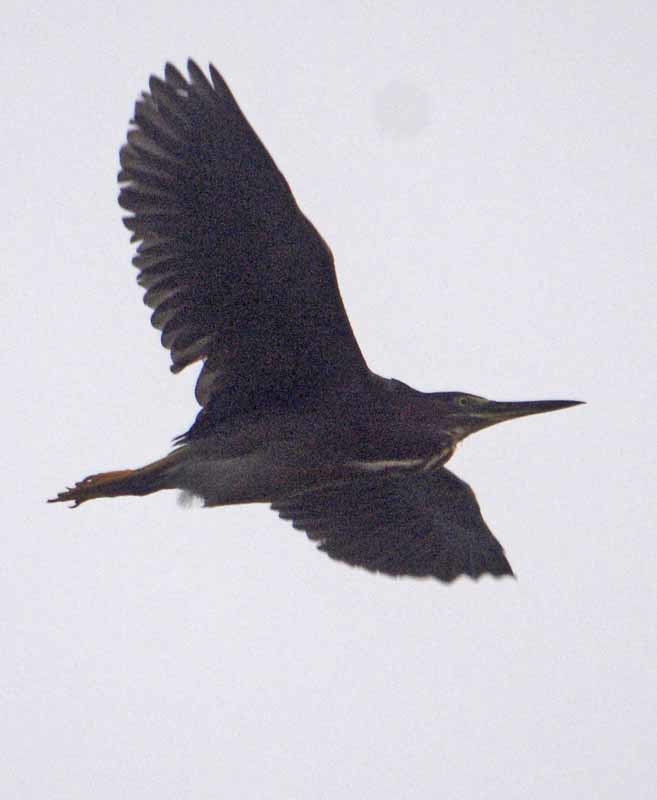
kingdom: Animalia
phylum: Chordata
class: Aves
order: Pelecaniformes
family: Ardeidae
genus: Butorides
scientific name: Butorides virescens
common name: Green heron
